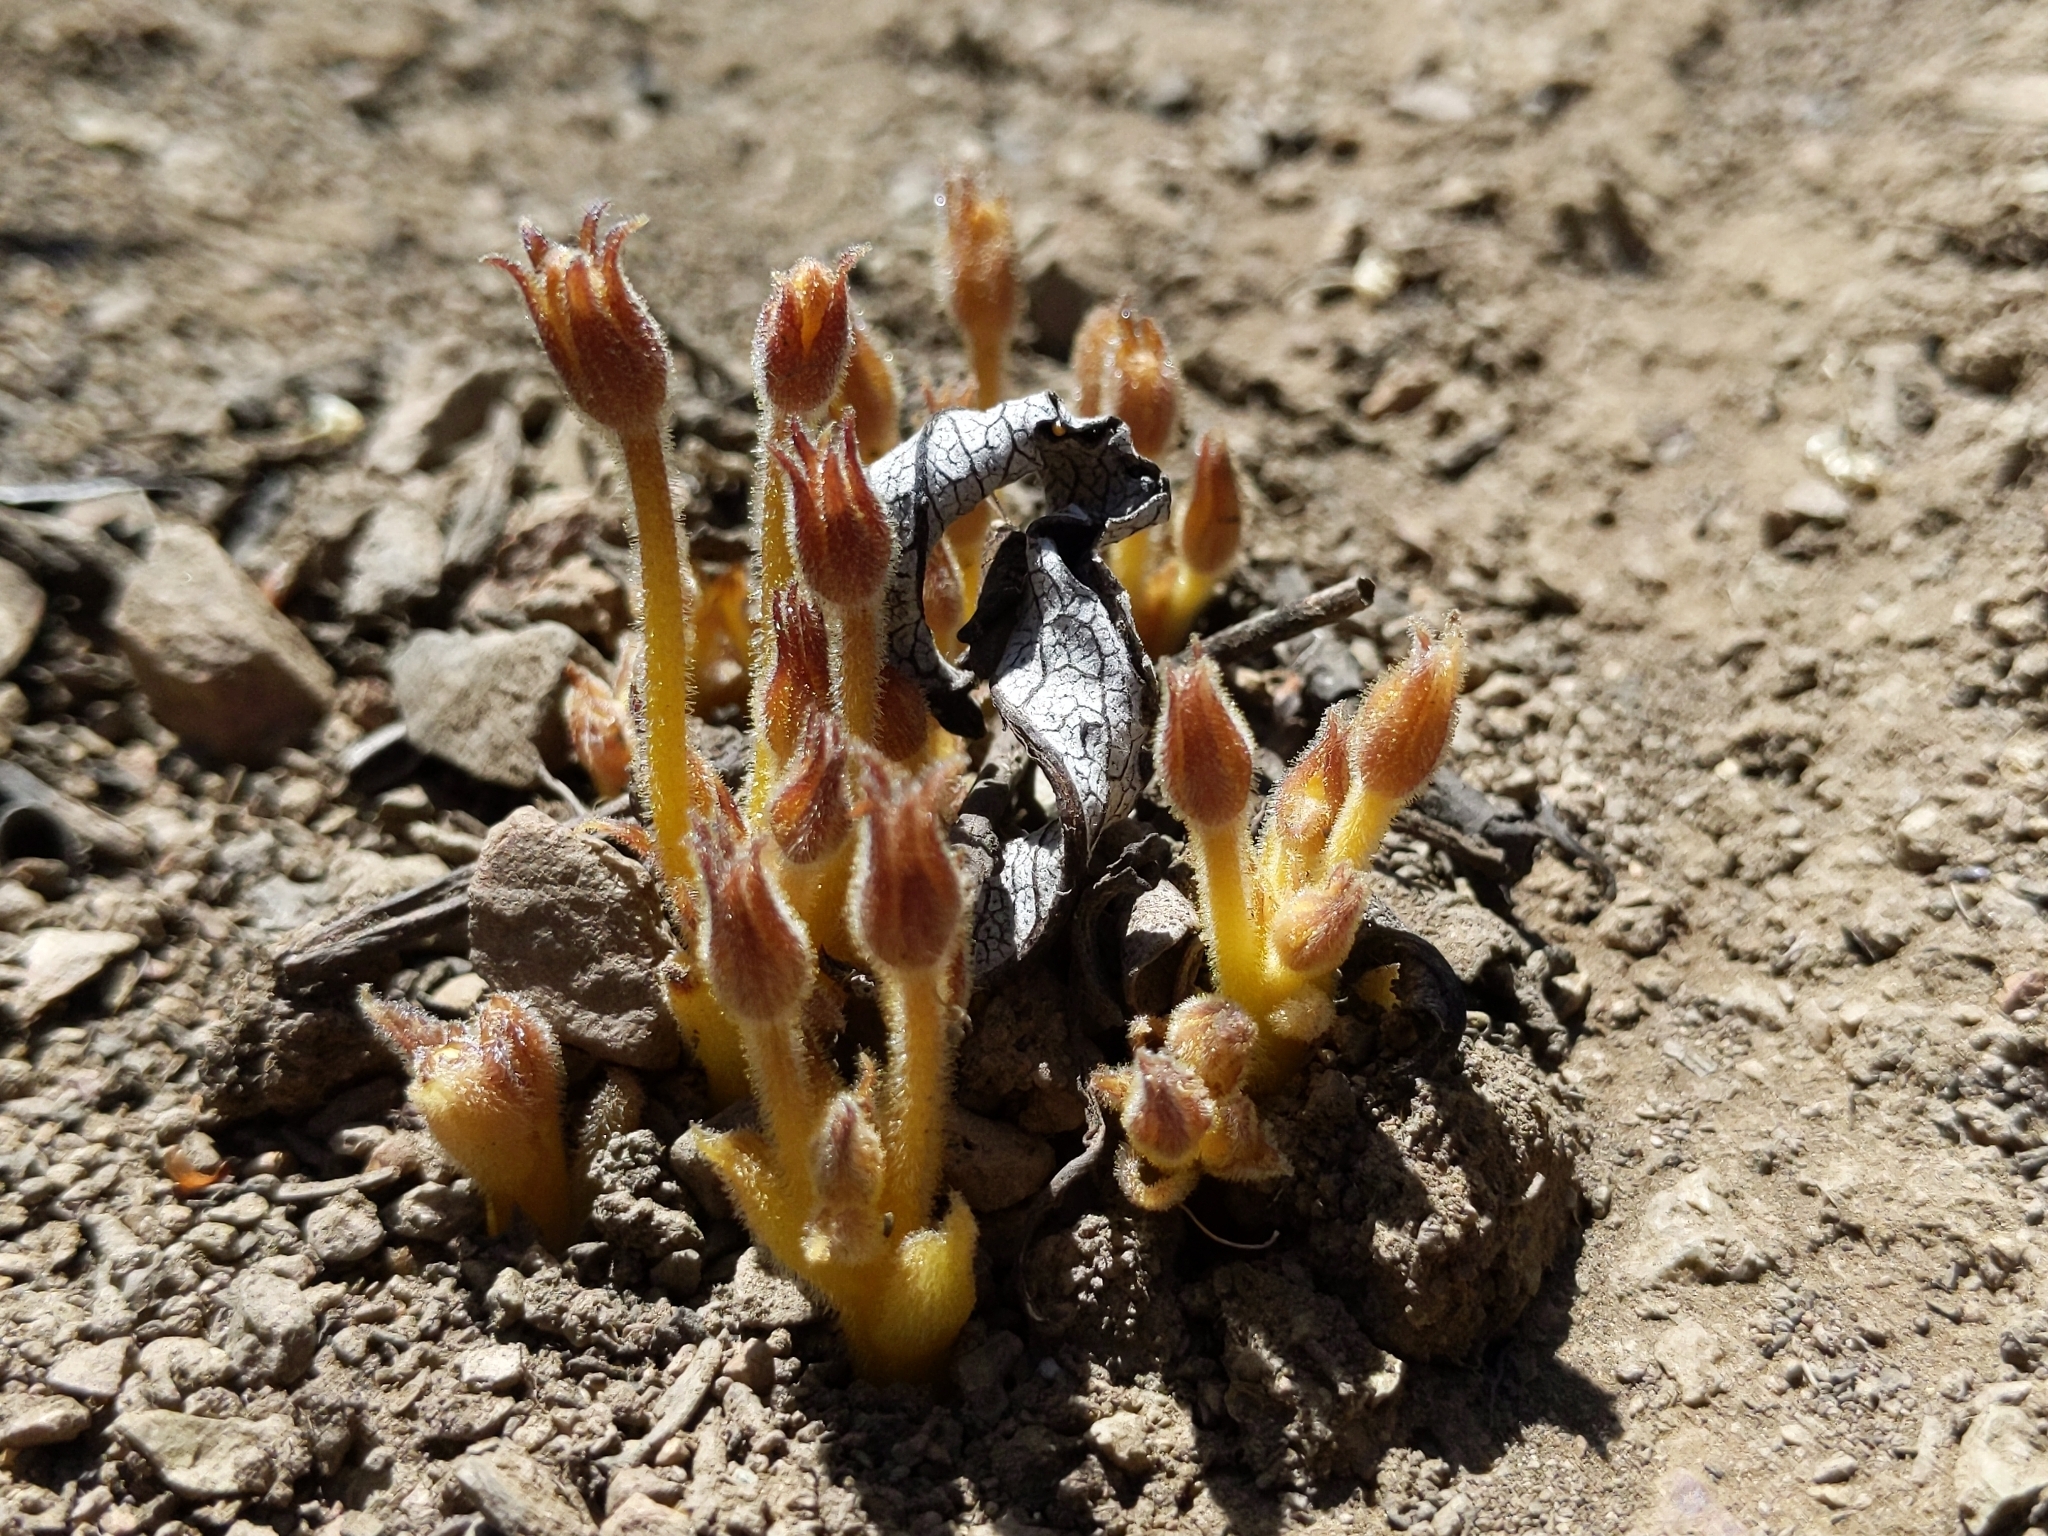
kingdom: Plantae
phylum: Tracheophyta
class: Magnoliopsida
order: Lamiales
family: Orobanchaceae
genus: Aphyllon
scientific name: Aphyllon franciscanum
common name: San francisco broomrape
